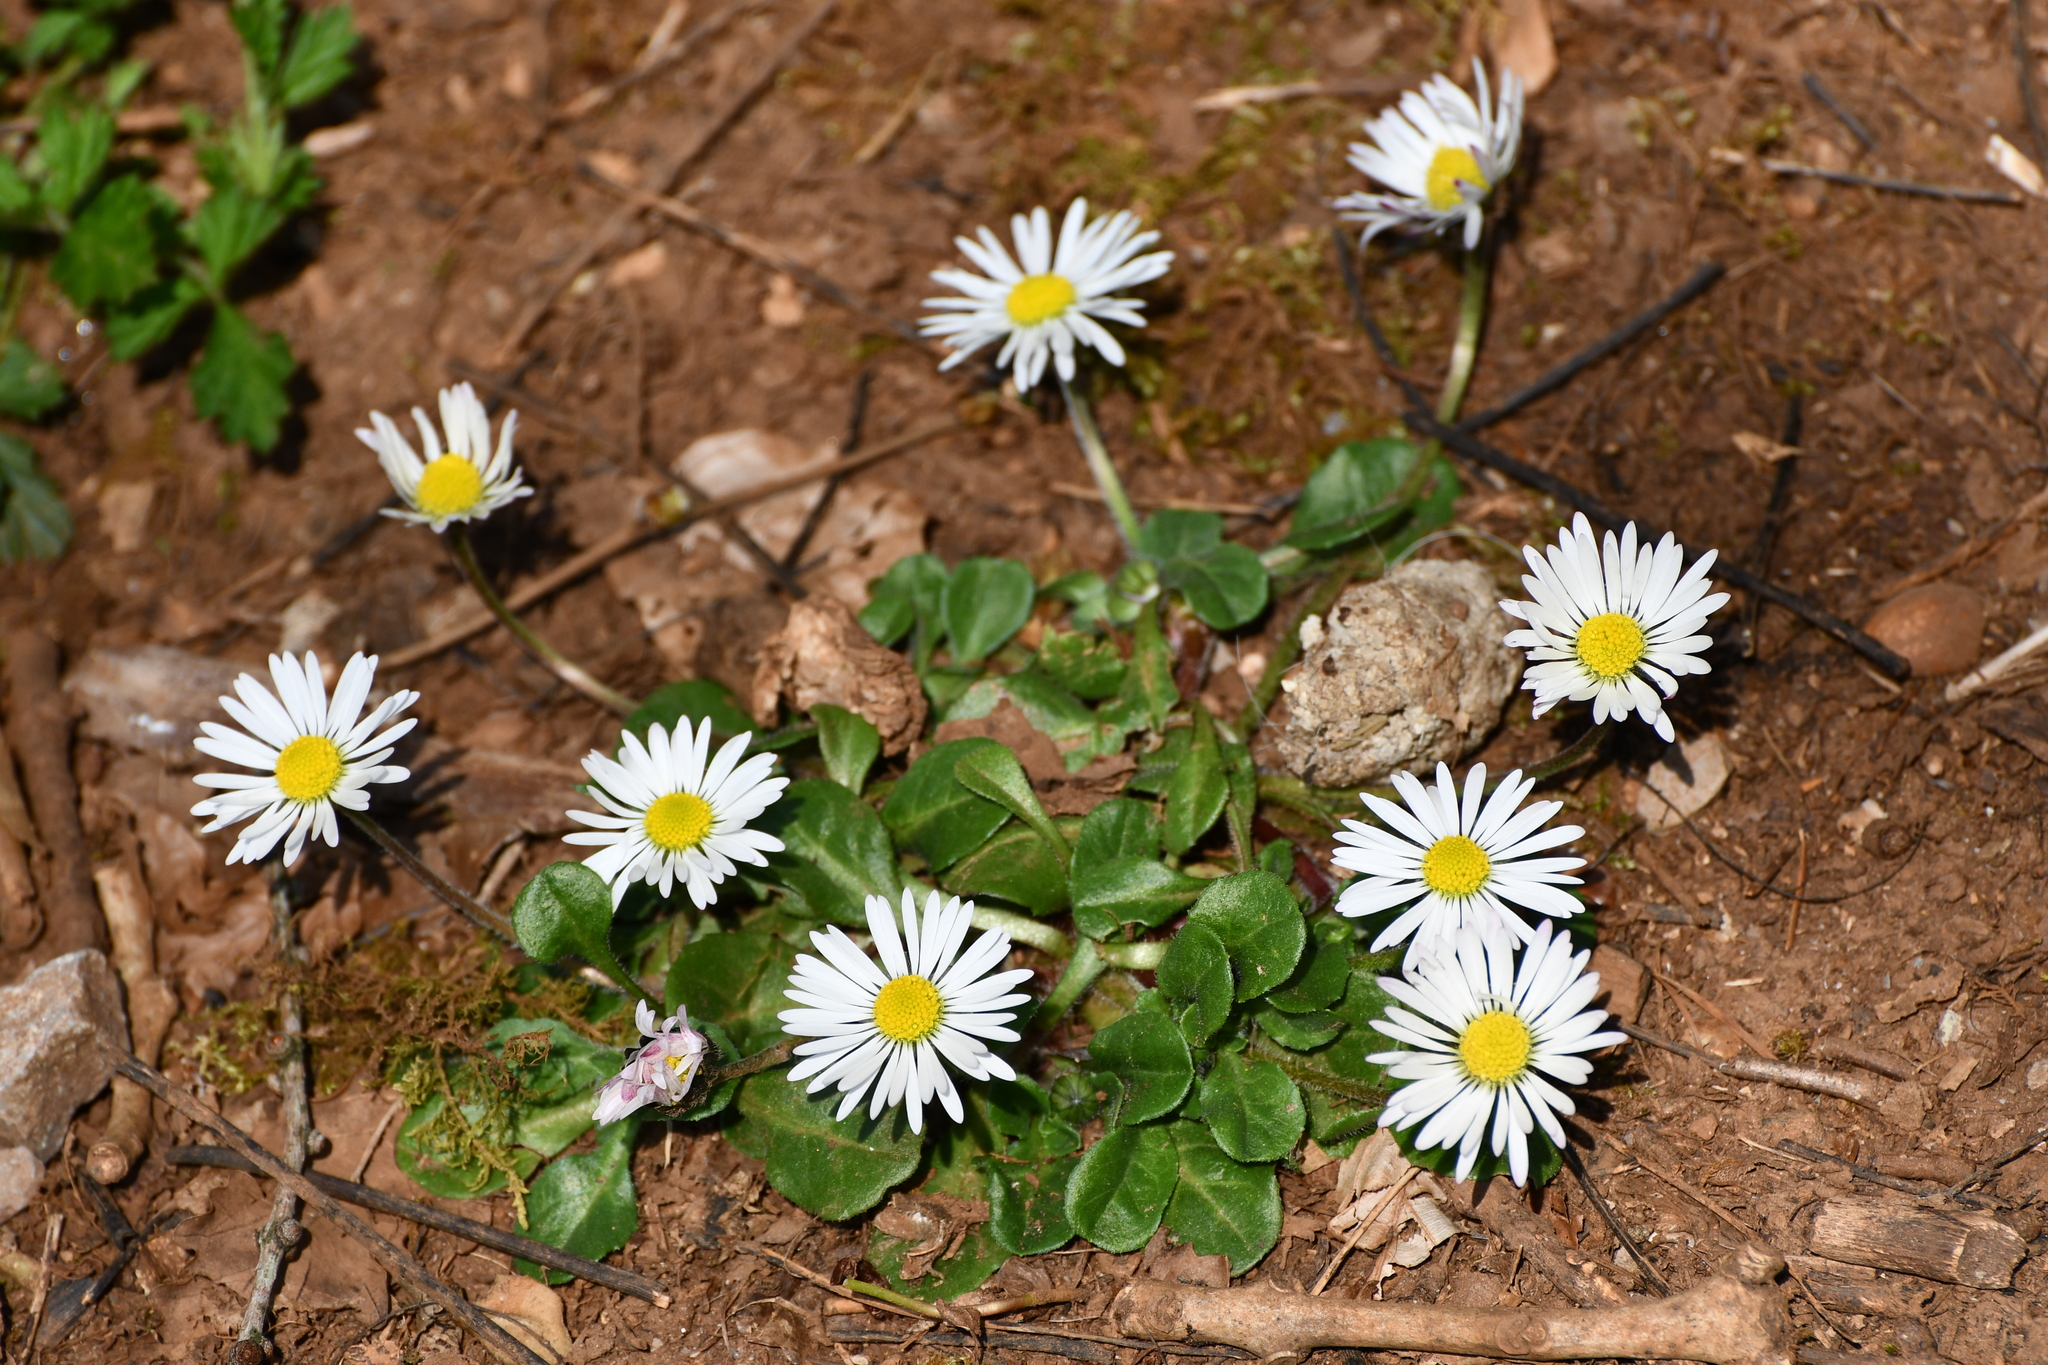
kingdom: Plantae
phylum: Tracheophyta
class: Magnoliopsida
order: Asterales
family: Asteraceae
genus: Bellis
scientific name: Bellis perennis
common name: Lawndaisy
